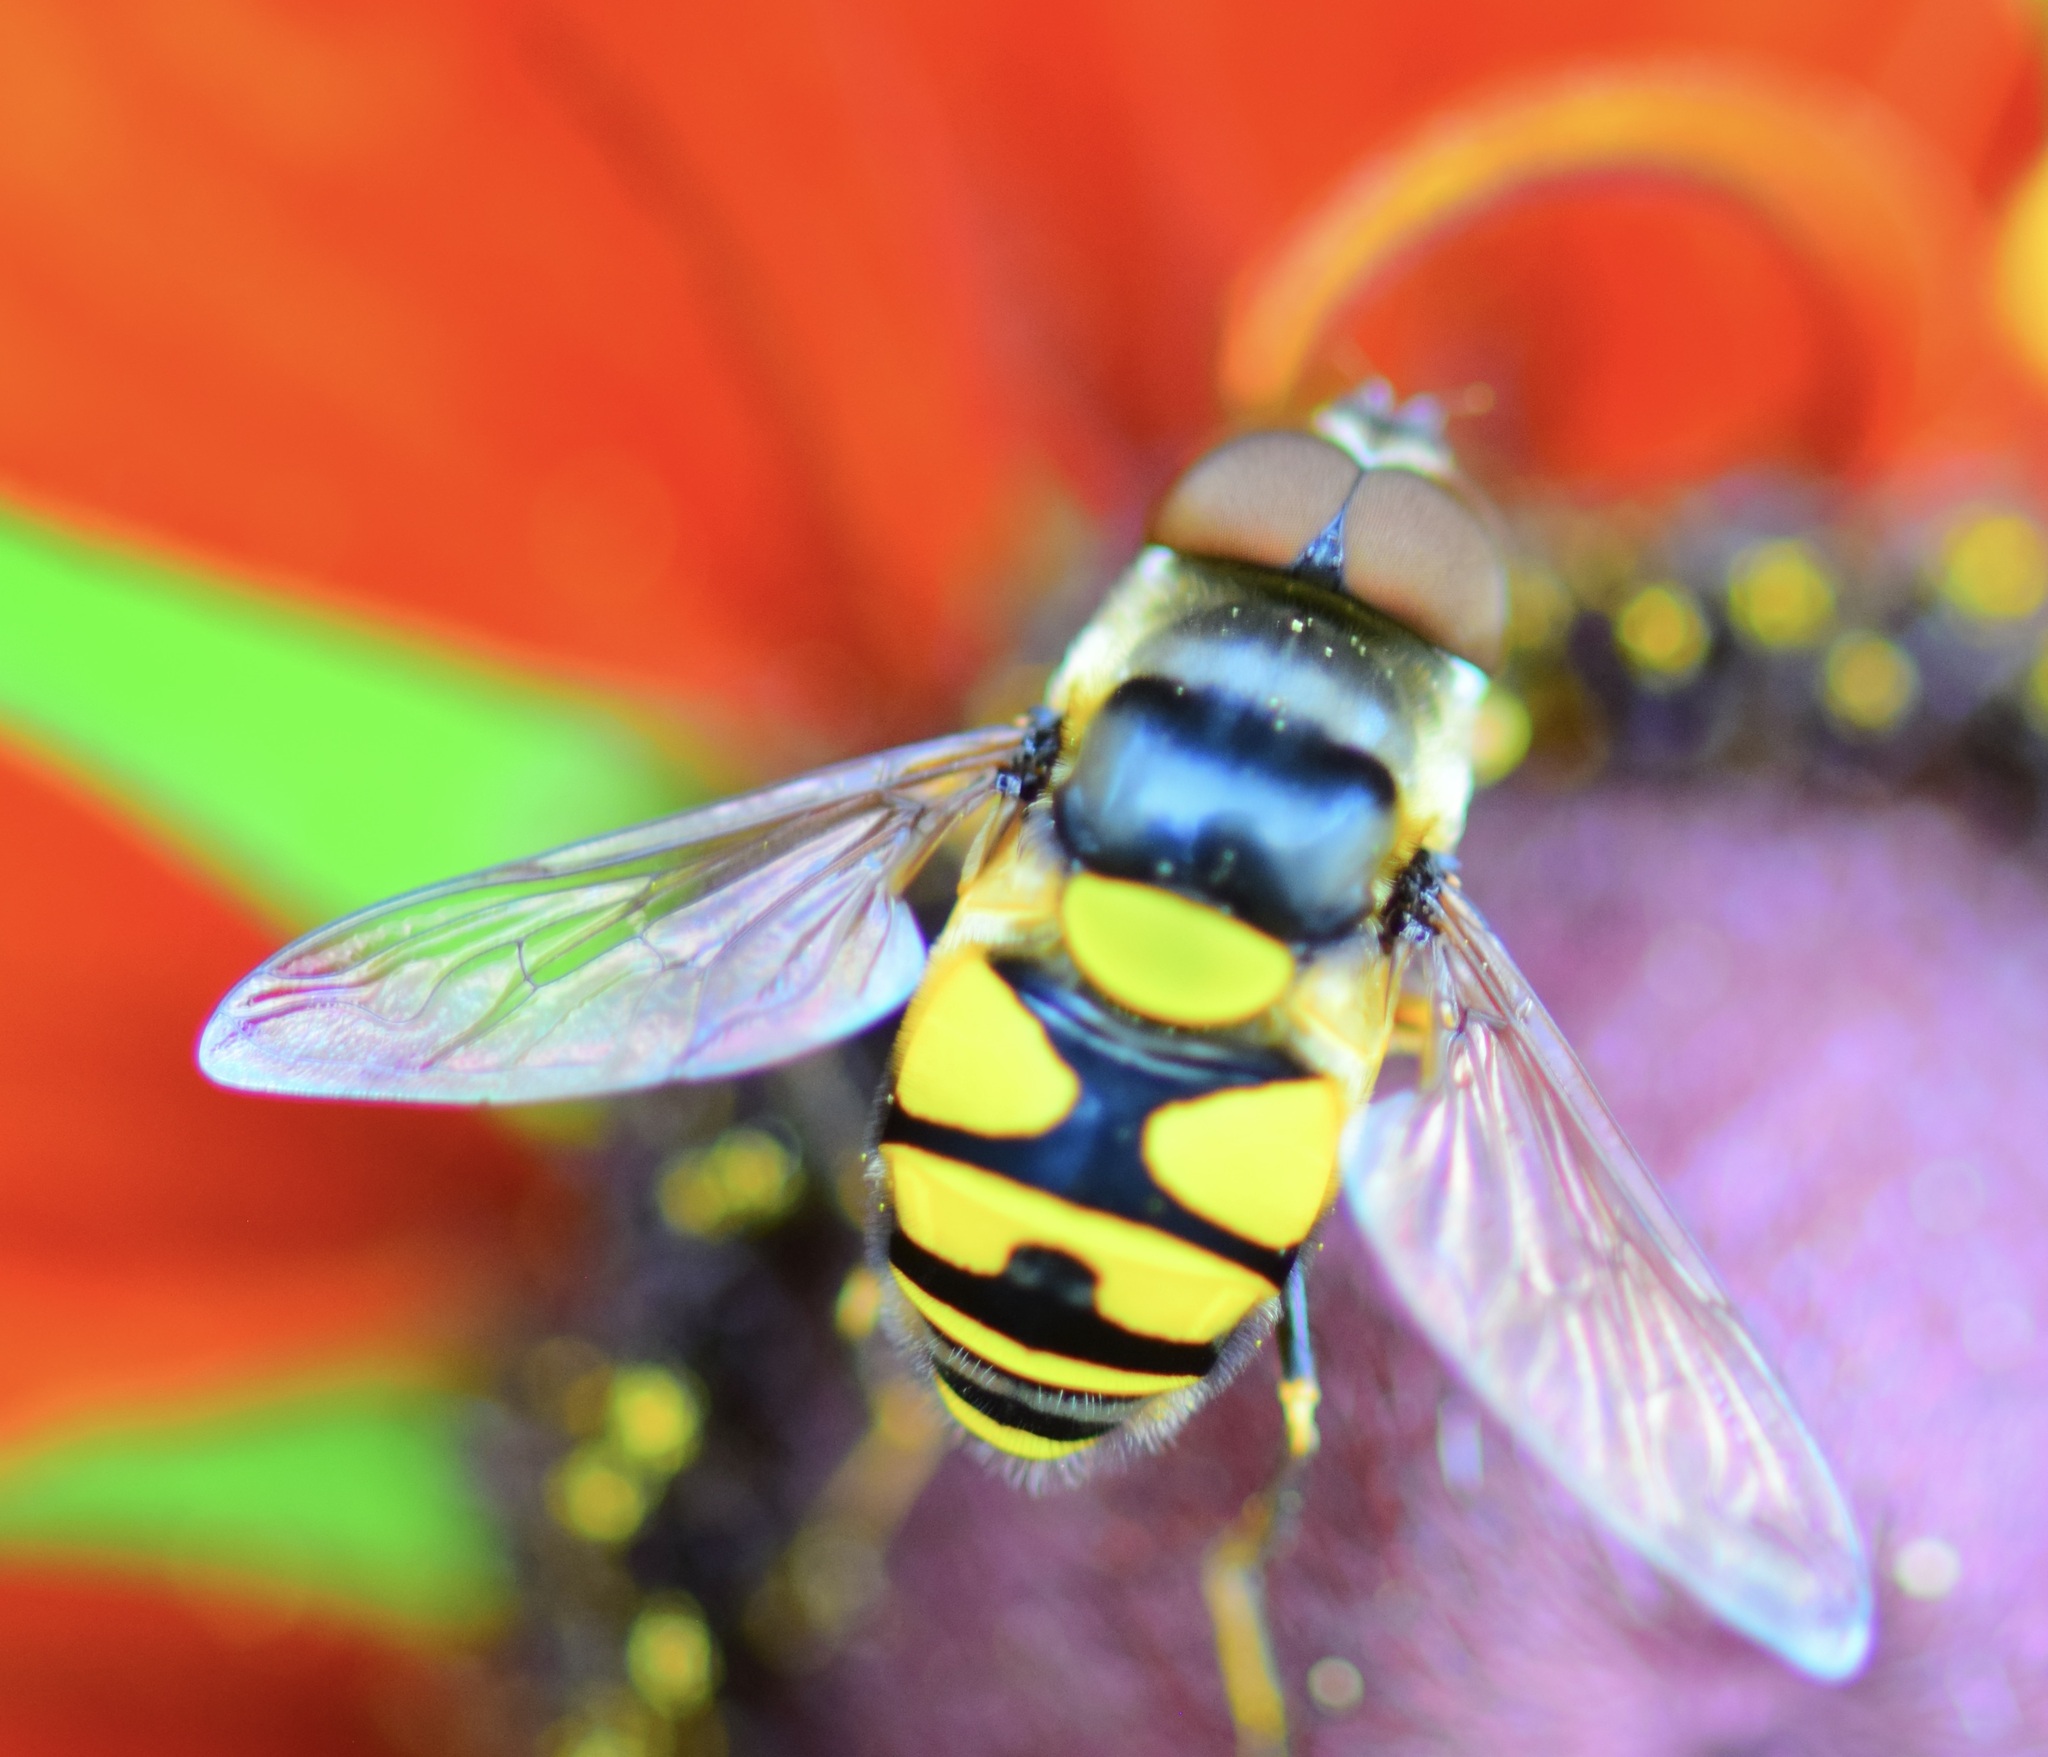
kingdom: Animalia
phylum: Arthropoda
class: Insecta
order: Diptera
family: Syrphidae
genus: Eristalis
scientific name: Eristalis transversa
